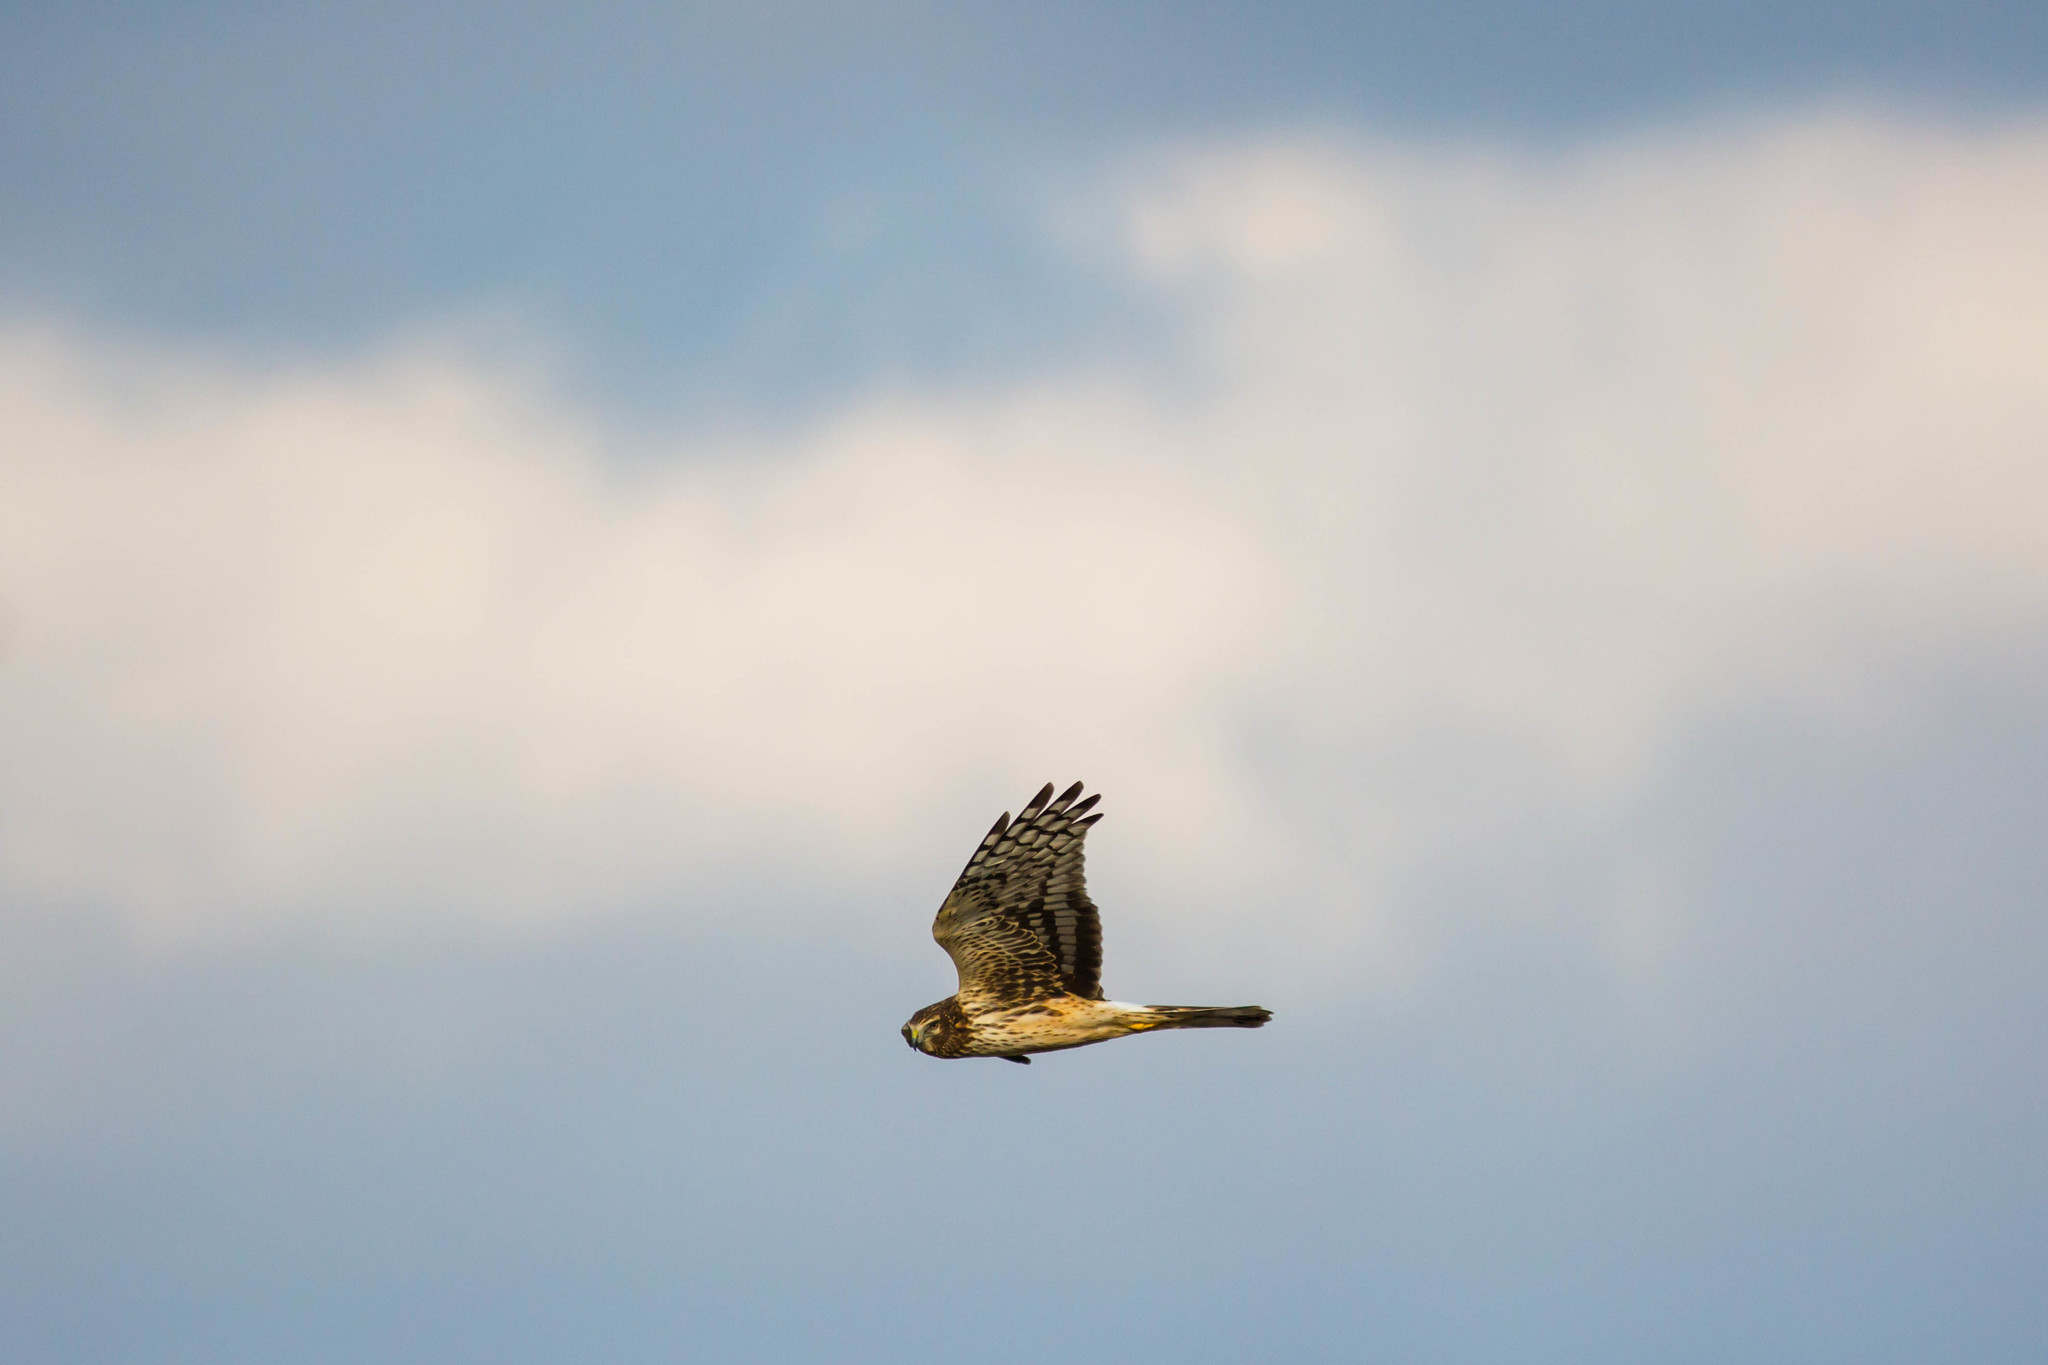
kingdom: Animalia
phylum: Chordata
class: Aves
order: Accipitriformes
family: Accipitridae
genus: Circus
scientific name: Circus cyaneus
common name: Hen harrier
